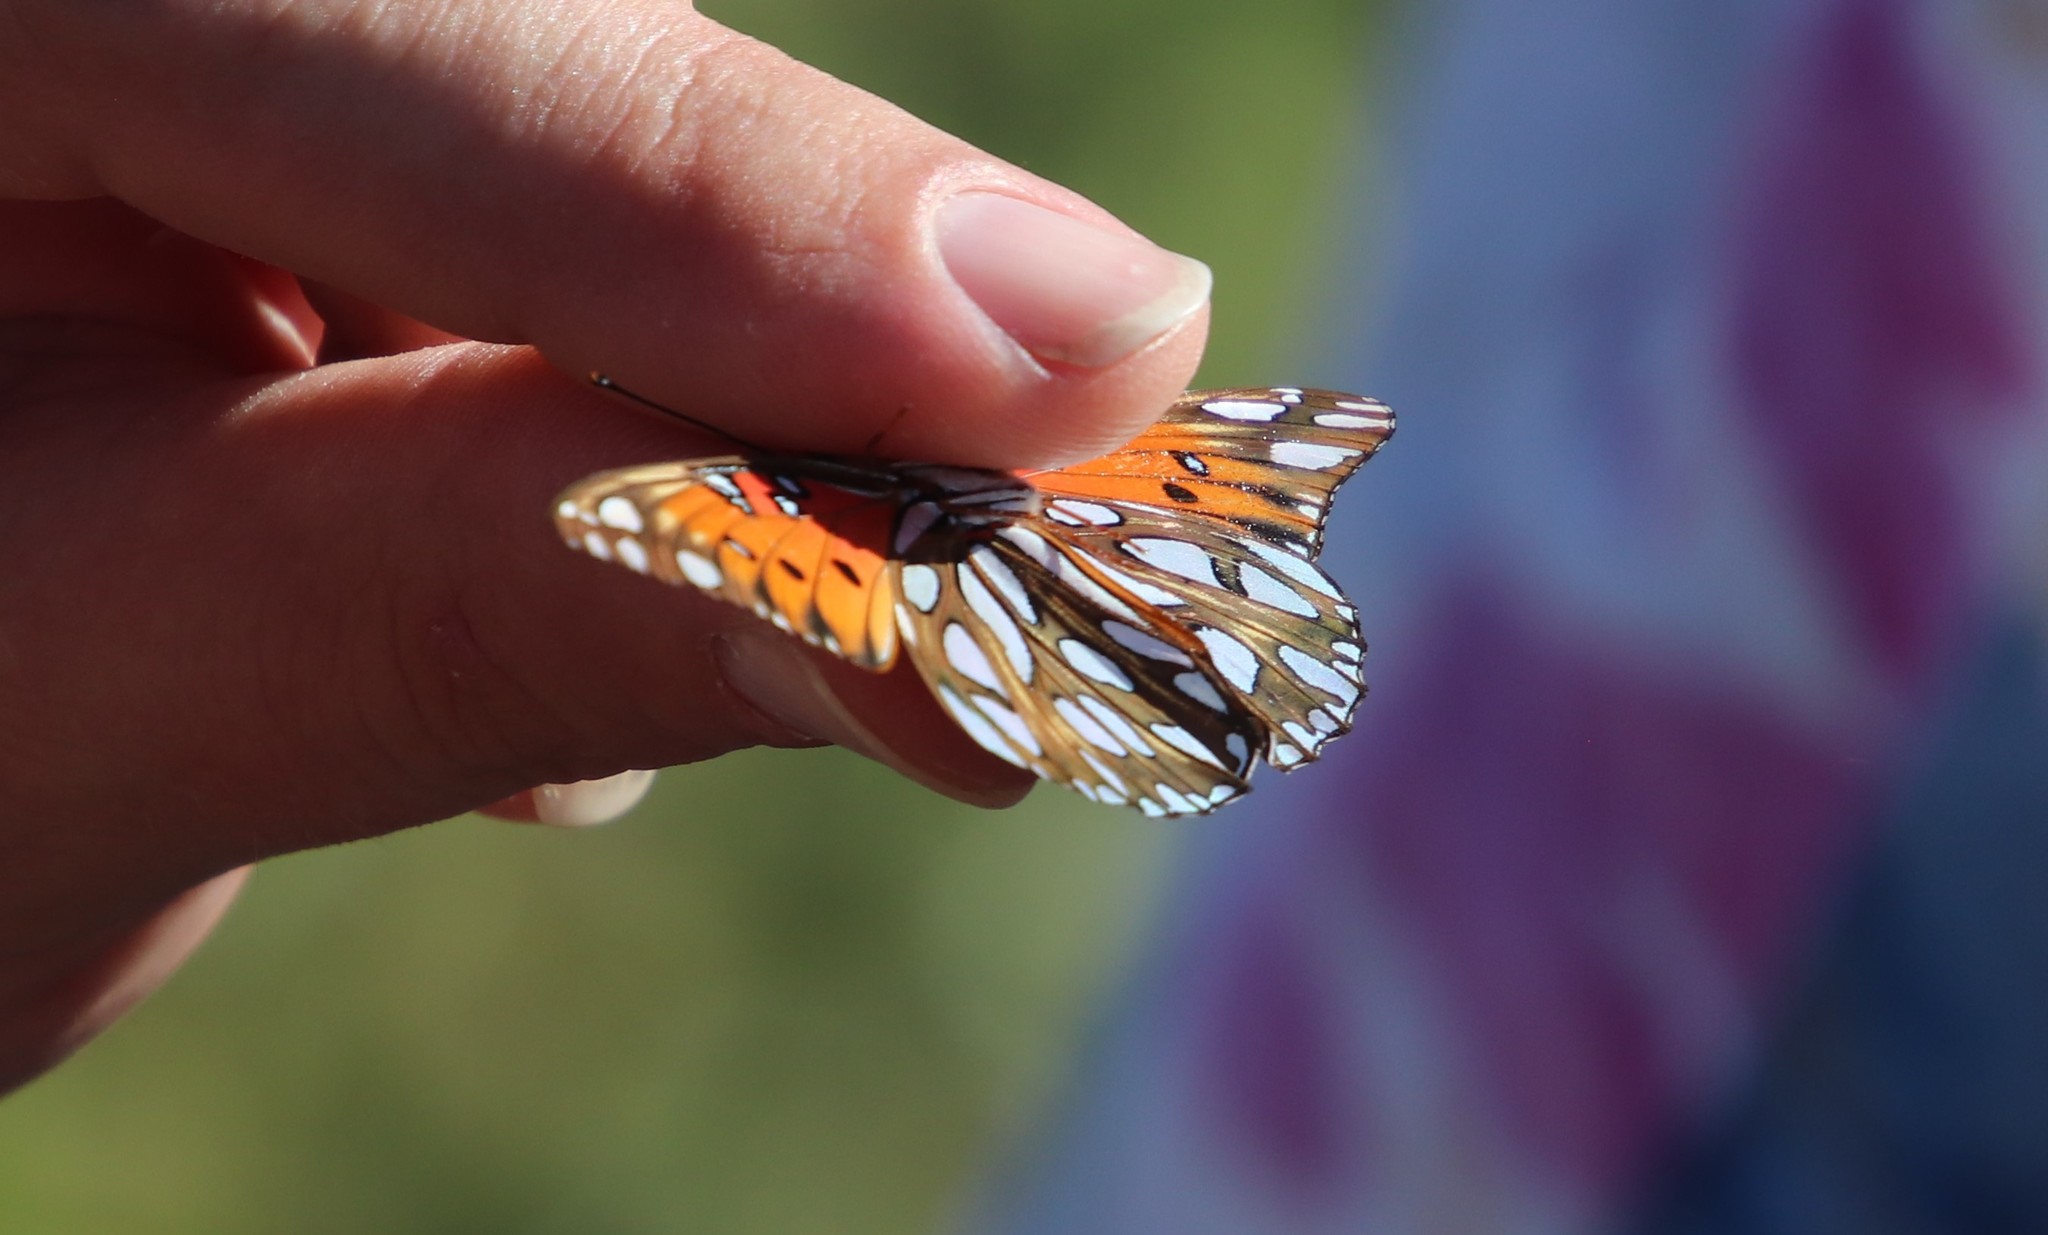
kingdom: Animalia
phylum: Arthropoda
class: Insecta
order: Lepidoptera
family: Nymphalidae
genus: Dione
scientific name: Dione vanillae
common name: Gulf fritillary
